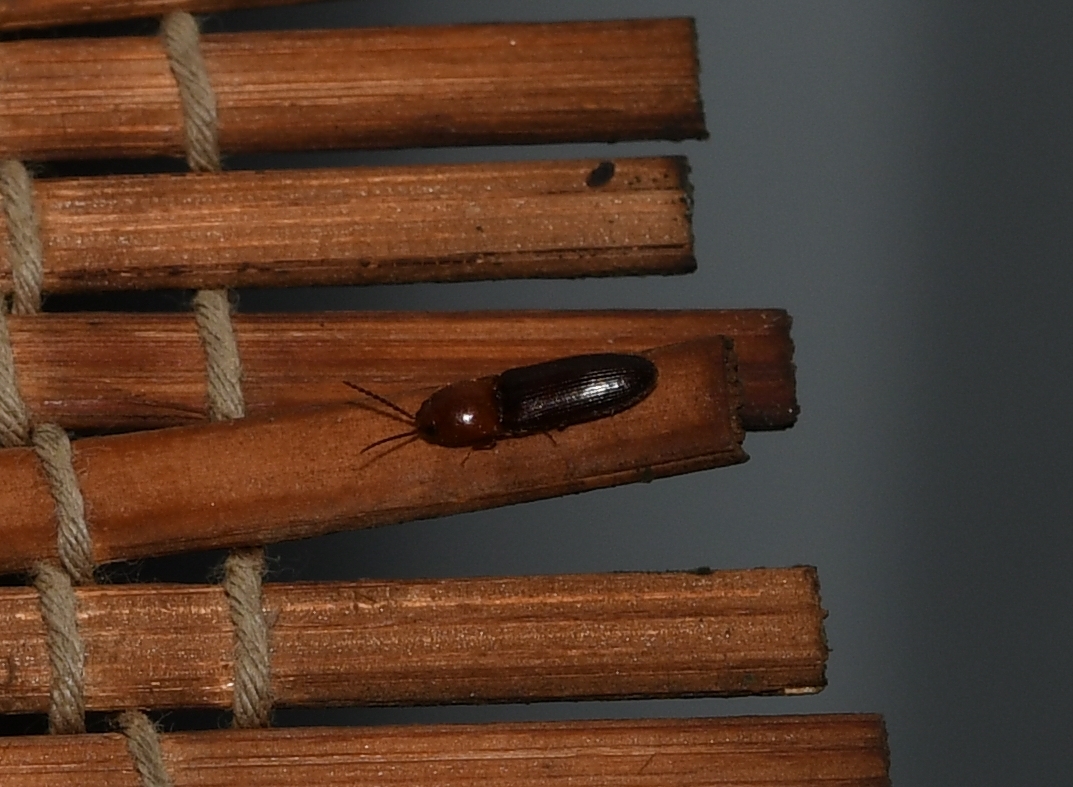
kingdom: Animalia
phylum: Arthropoda
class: Insecta
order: Coleoptera
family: Elateridae
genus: Anchastus
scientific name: Anchastus
